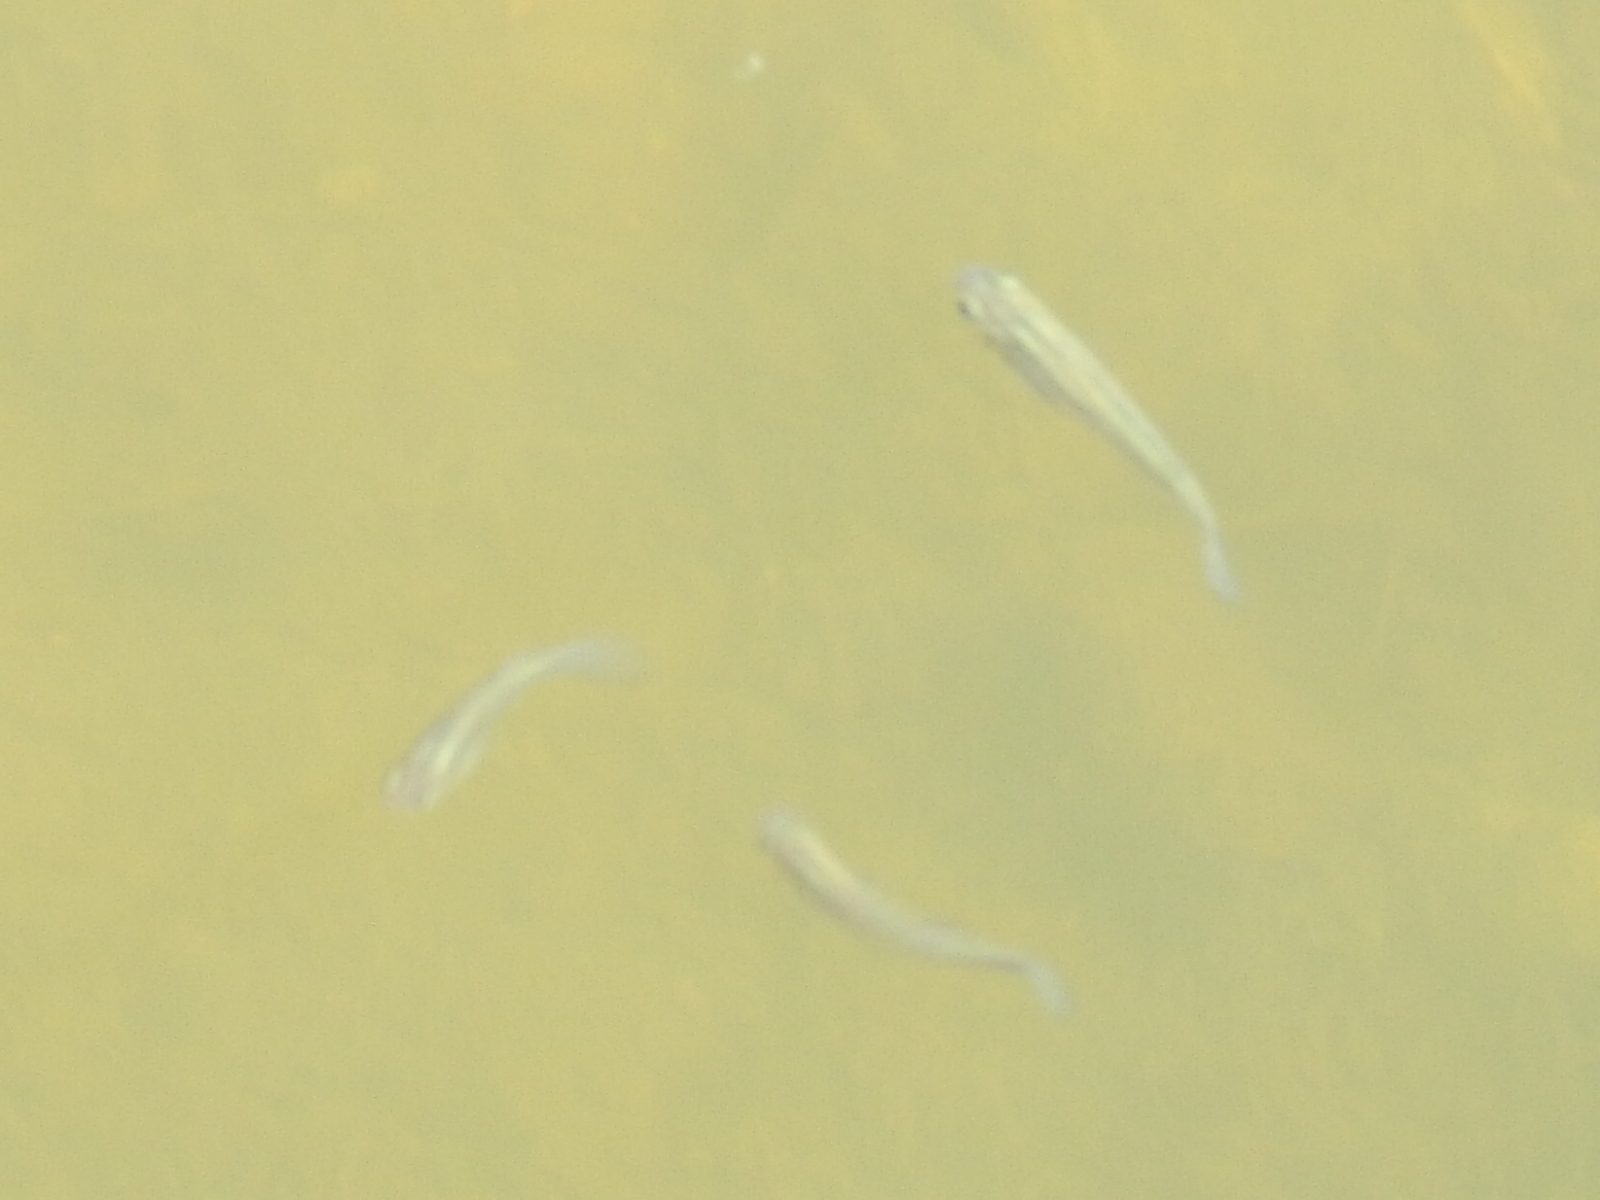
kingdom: Animalia
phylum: Chordata
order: Cyprinodontiformes
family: Poeciliidae
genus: Gambusia
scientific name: Gambusia affinis
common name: Mosquitofish
